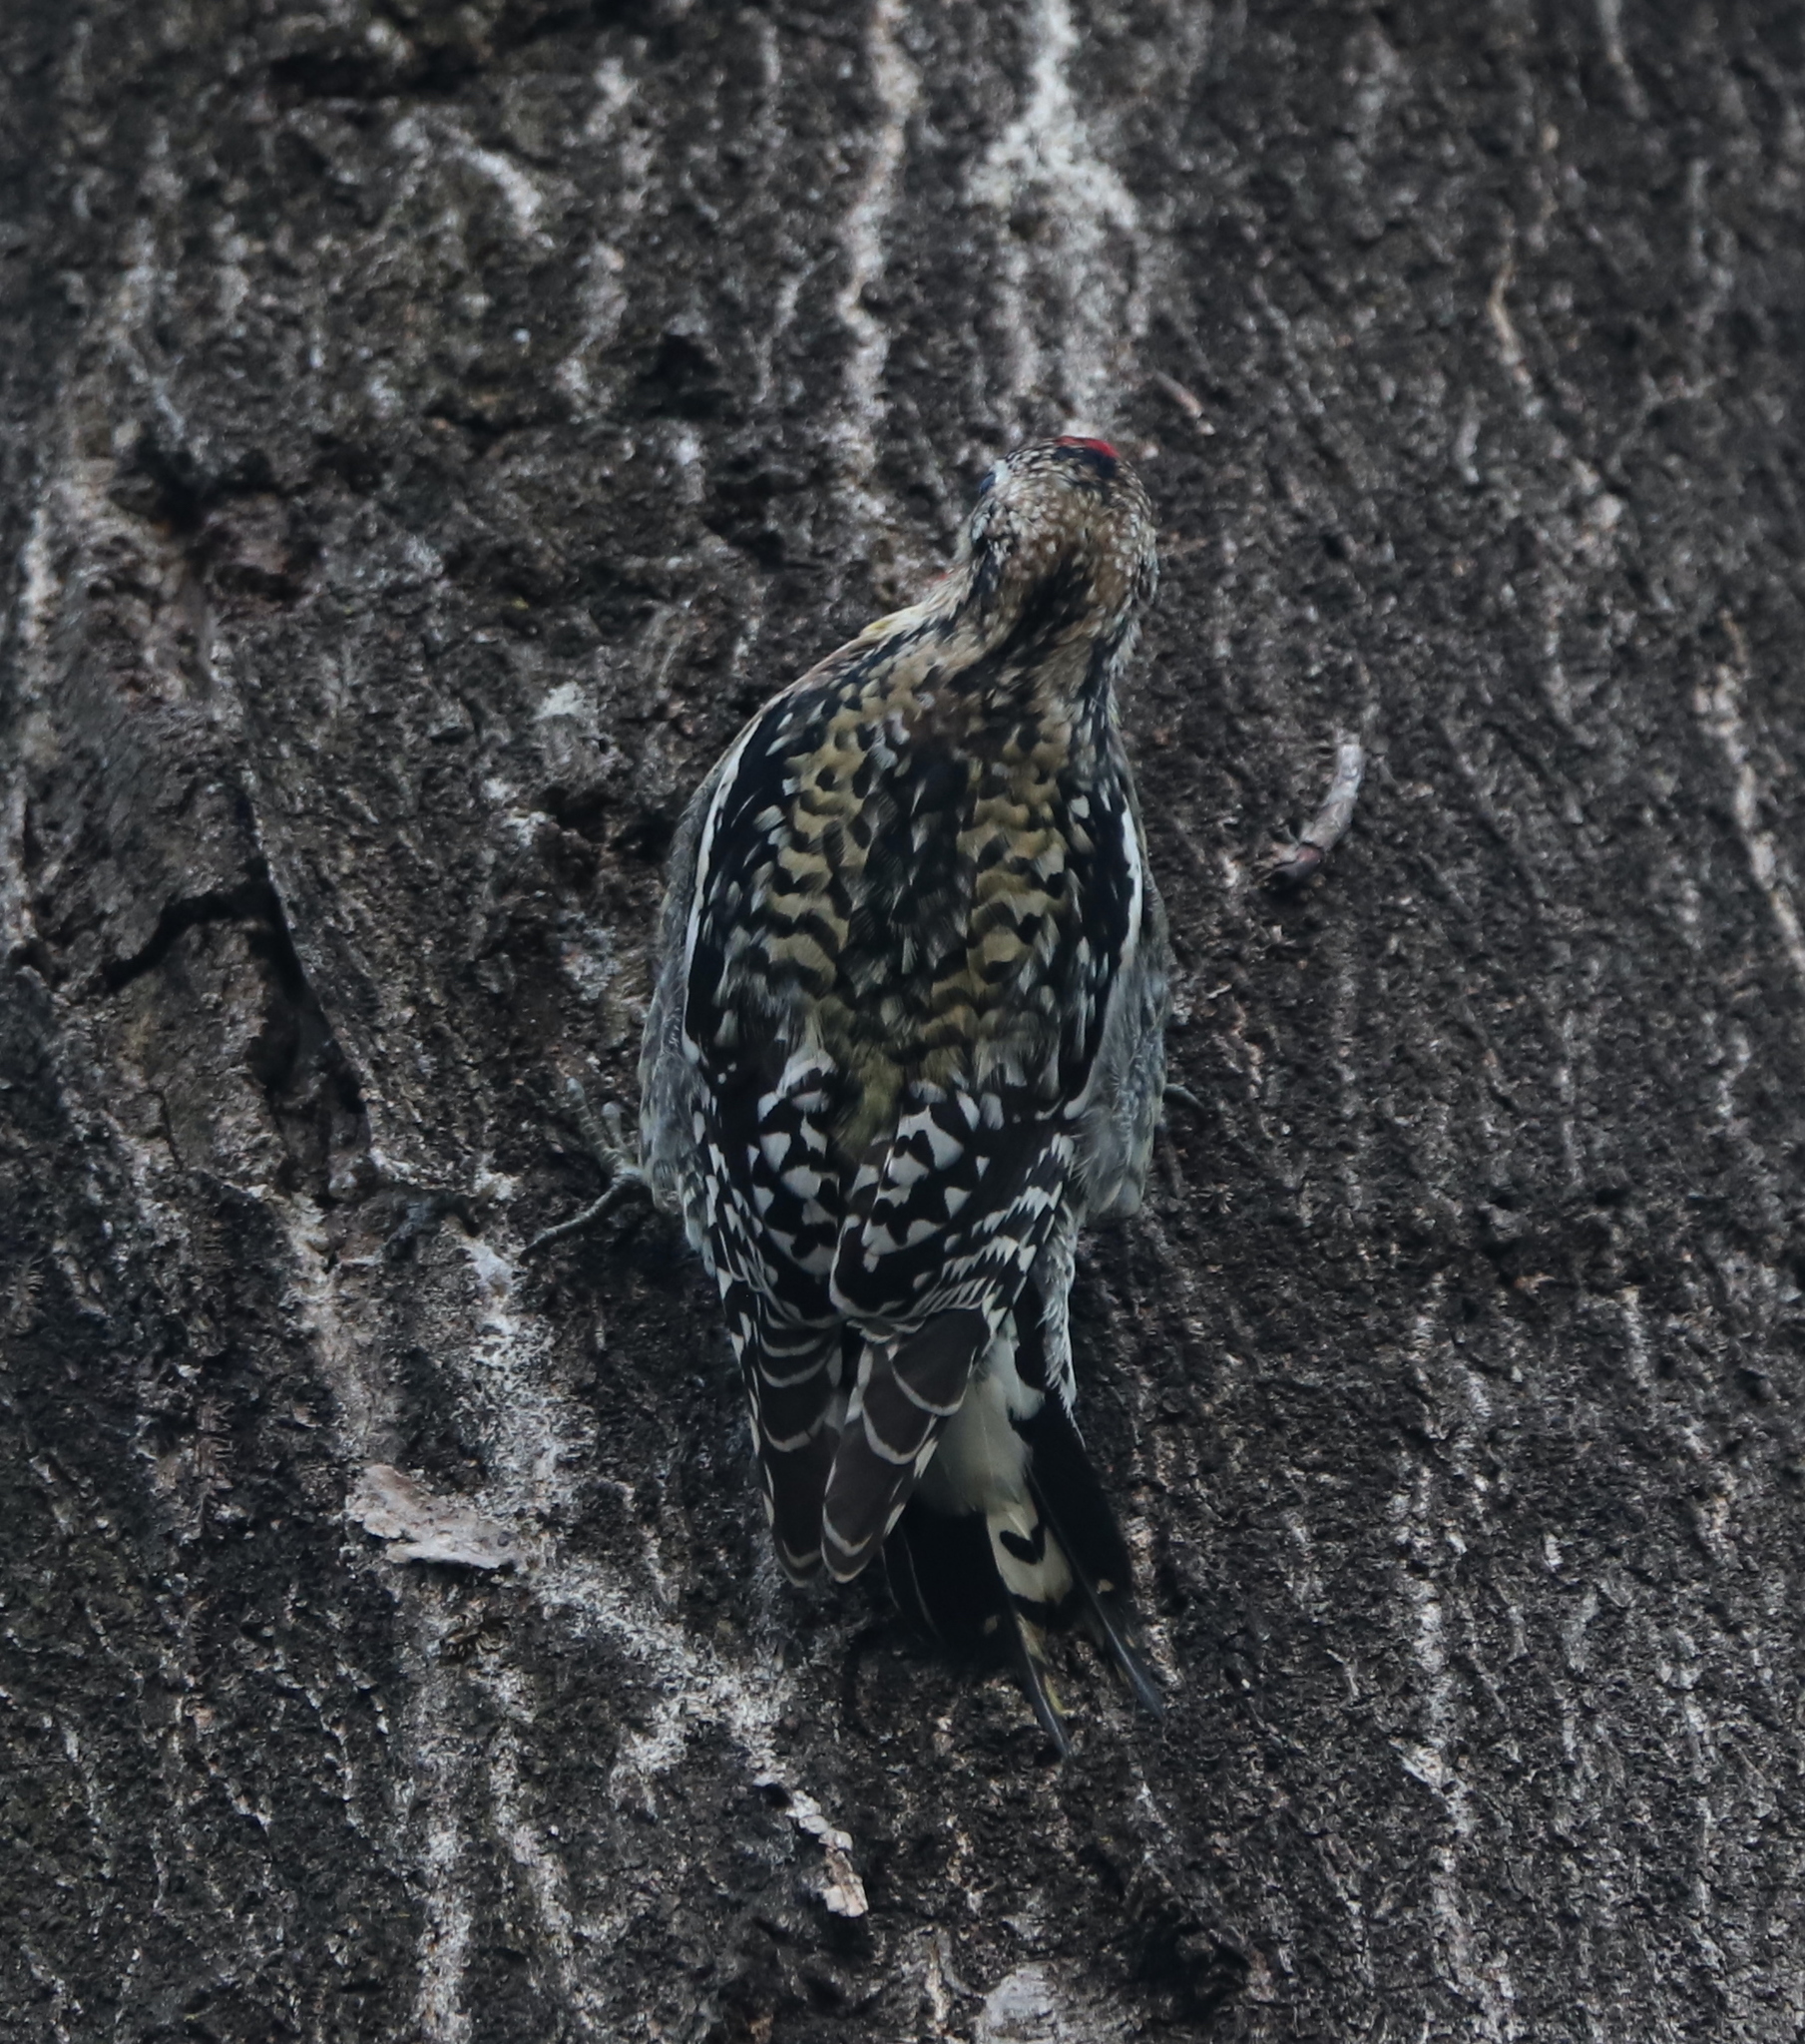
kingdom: Animalia
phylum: Chordata
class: Aves
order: Piciformes
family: Picidae
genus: Sphyrapicus
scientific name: Sphyrapicus varius
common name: Yellow-bellied sapsucker
